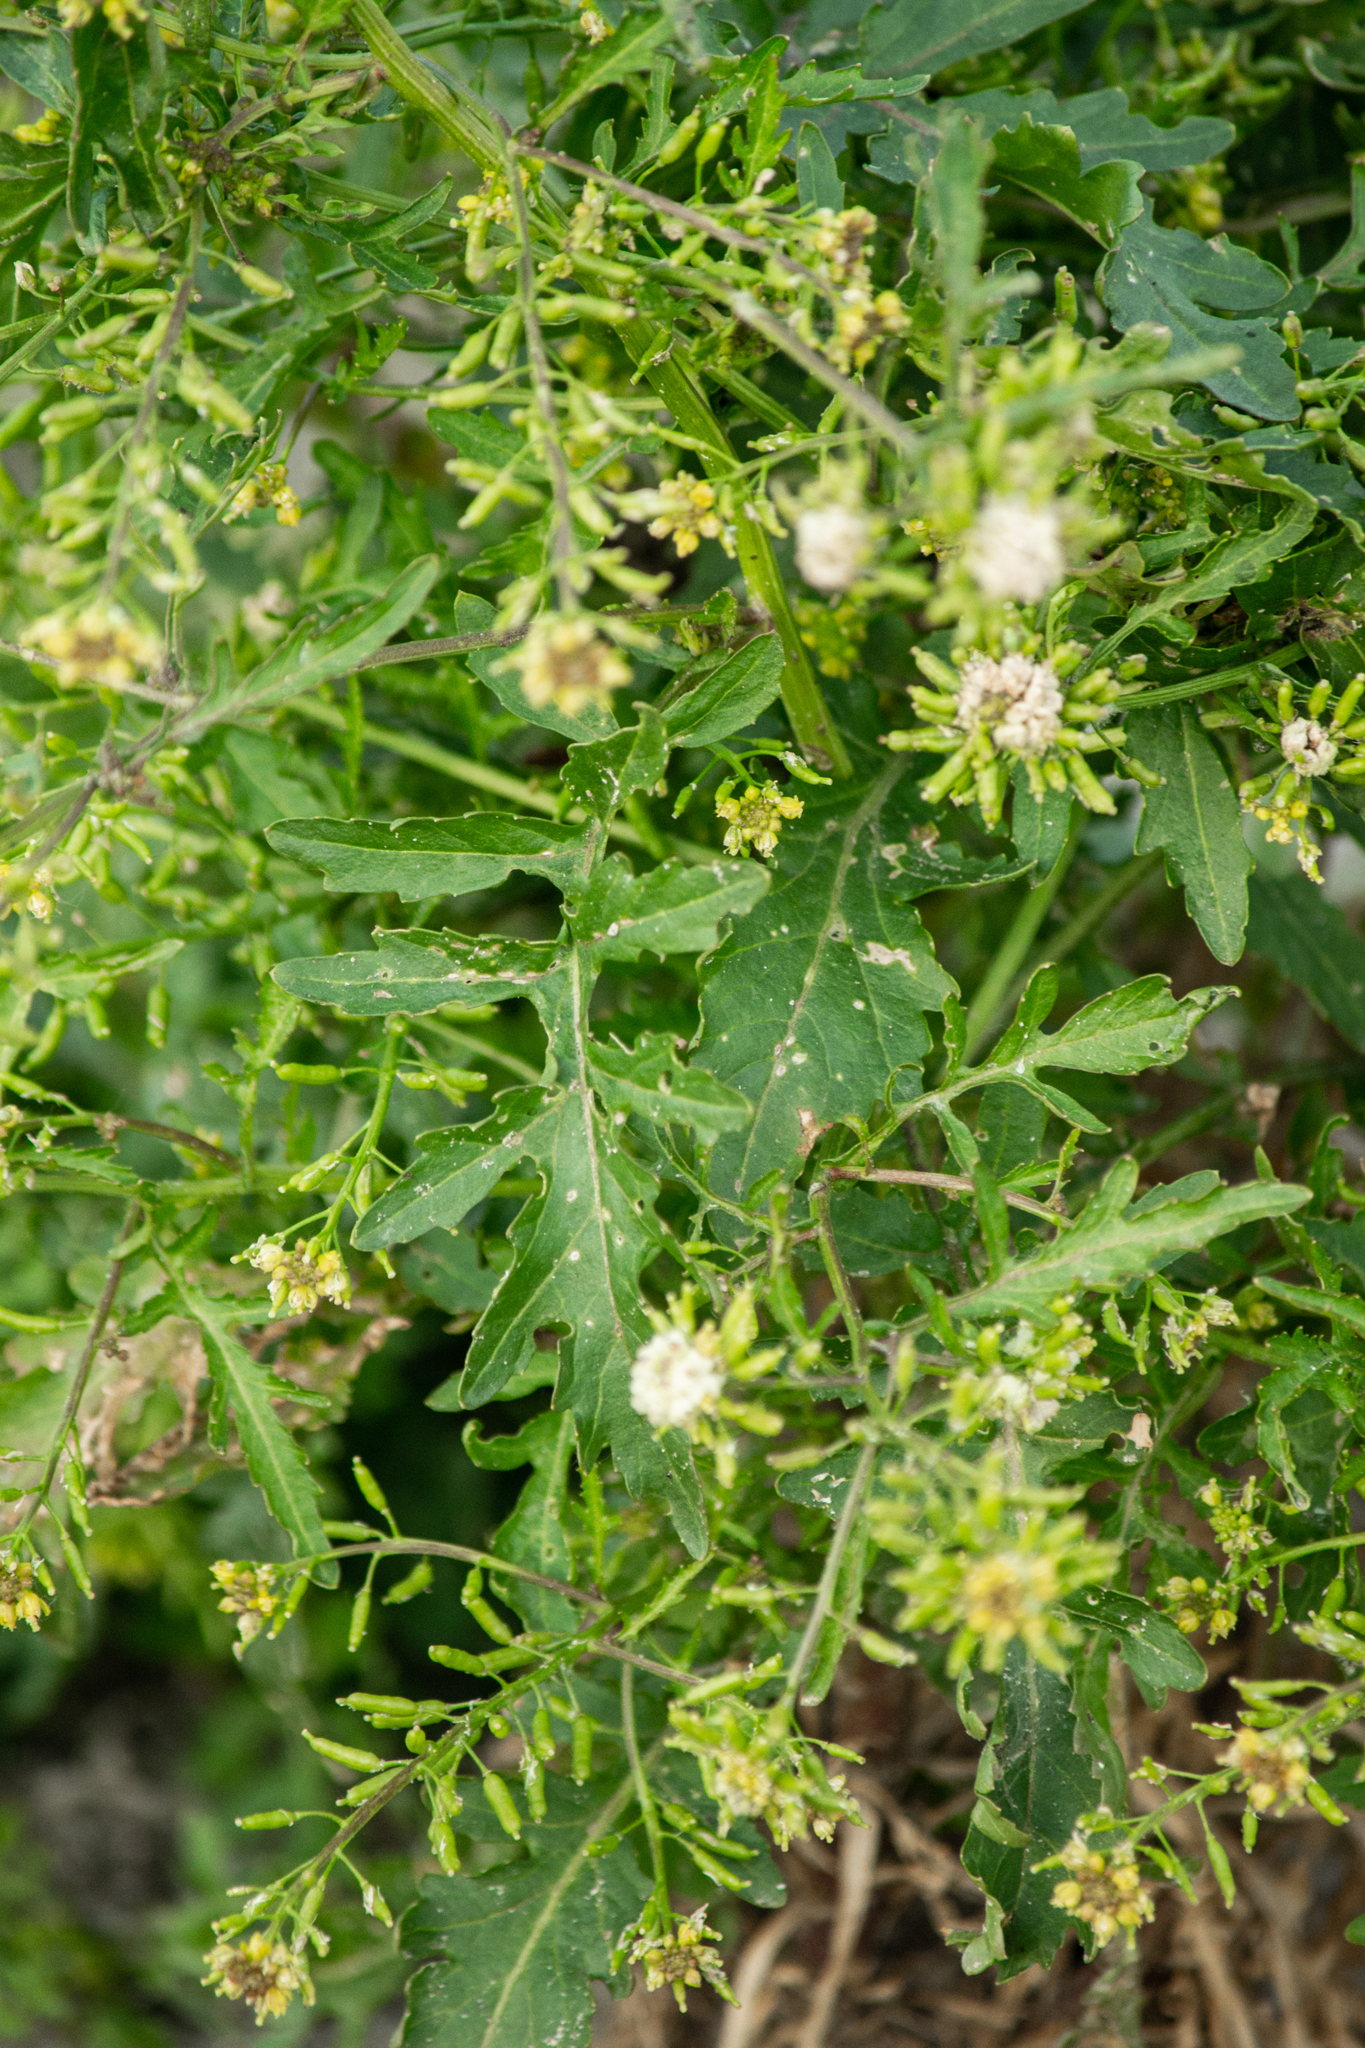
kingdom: Plantae
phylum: Tracheophyta
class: Magnoliopsida
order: Brassicales
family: Brassicaceae
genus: Rorippa
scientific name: Rorippa palustris
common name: Marsh yellow-cress
